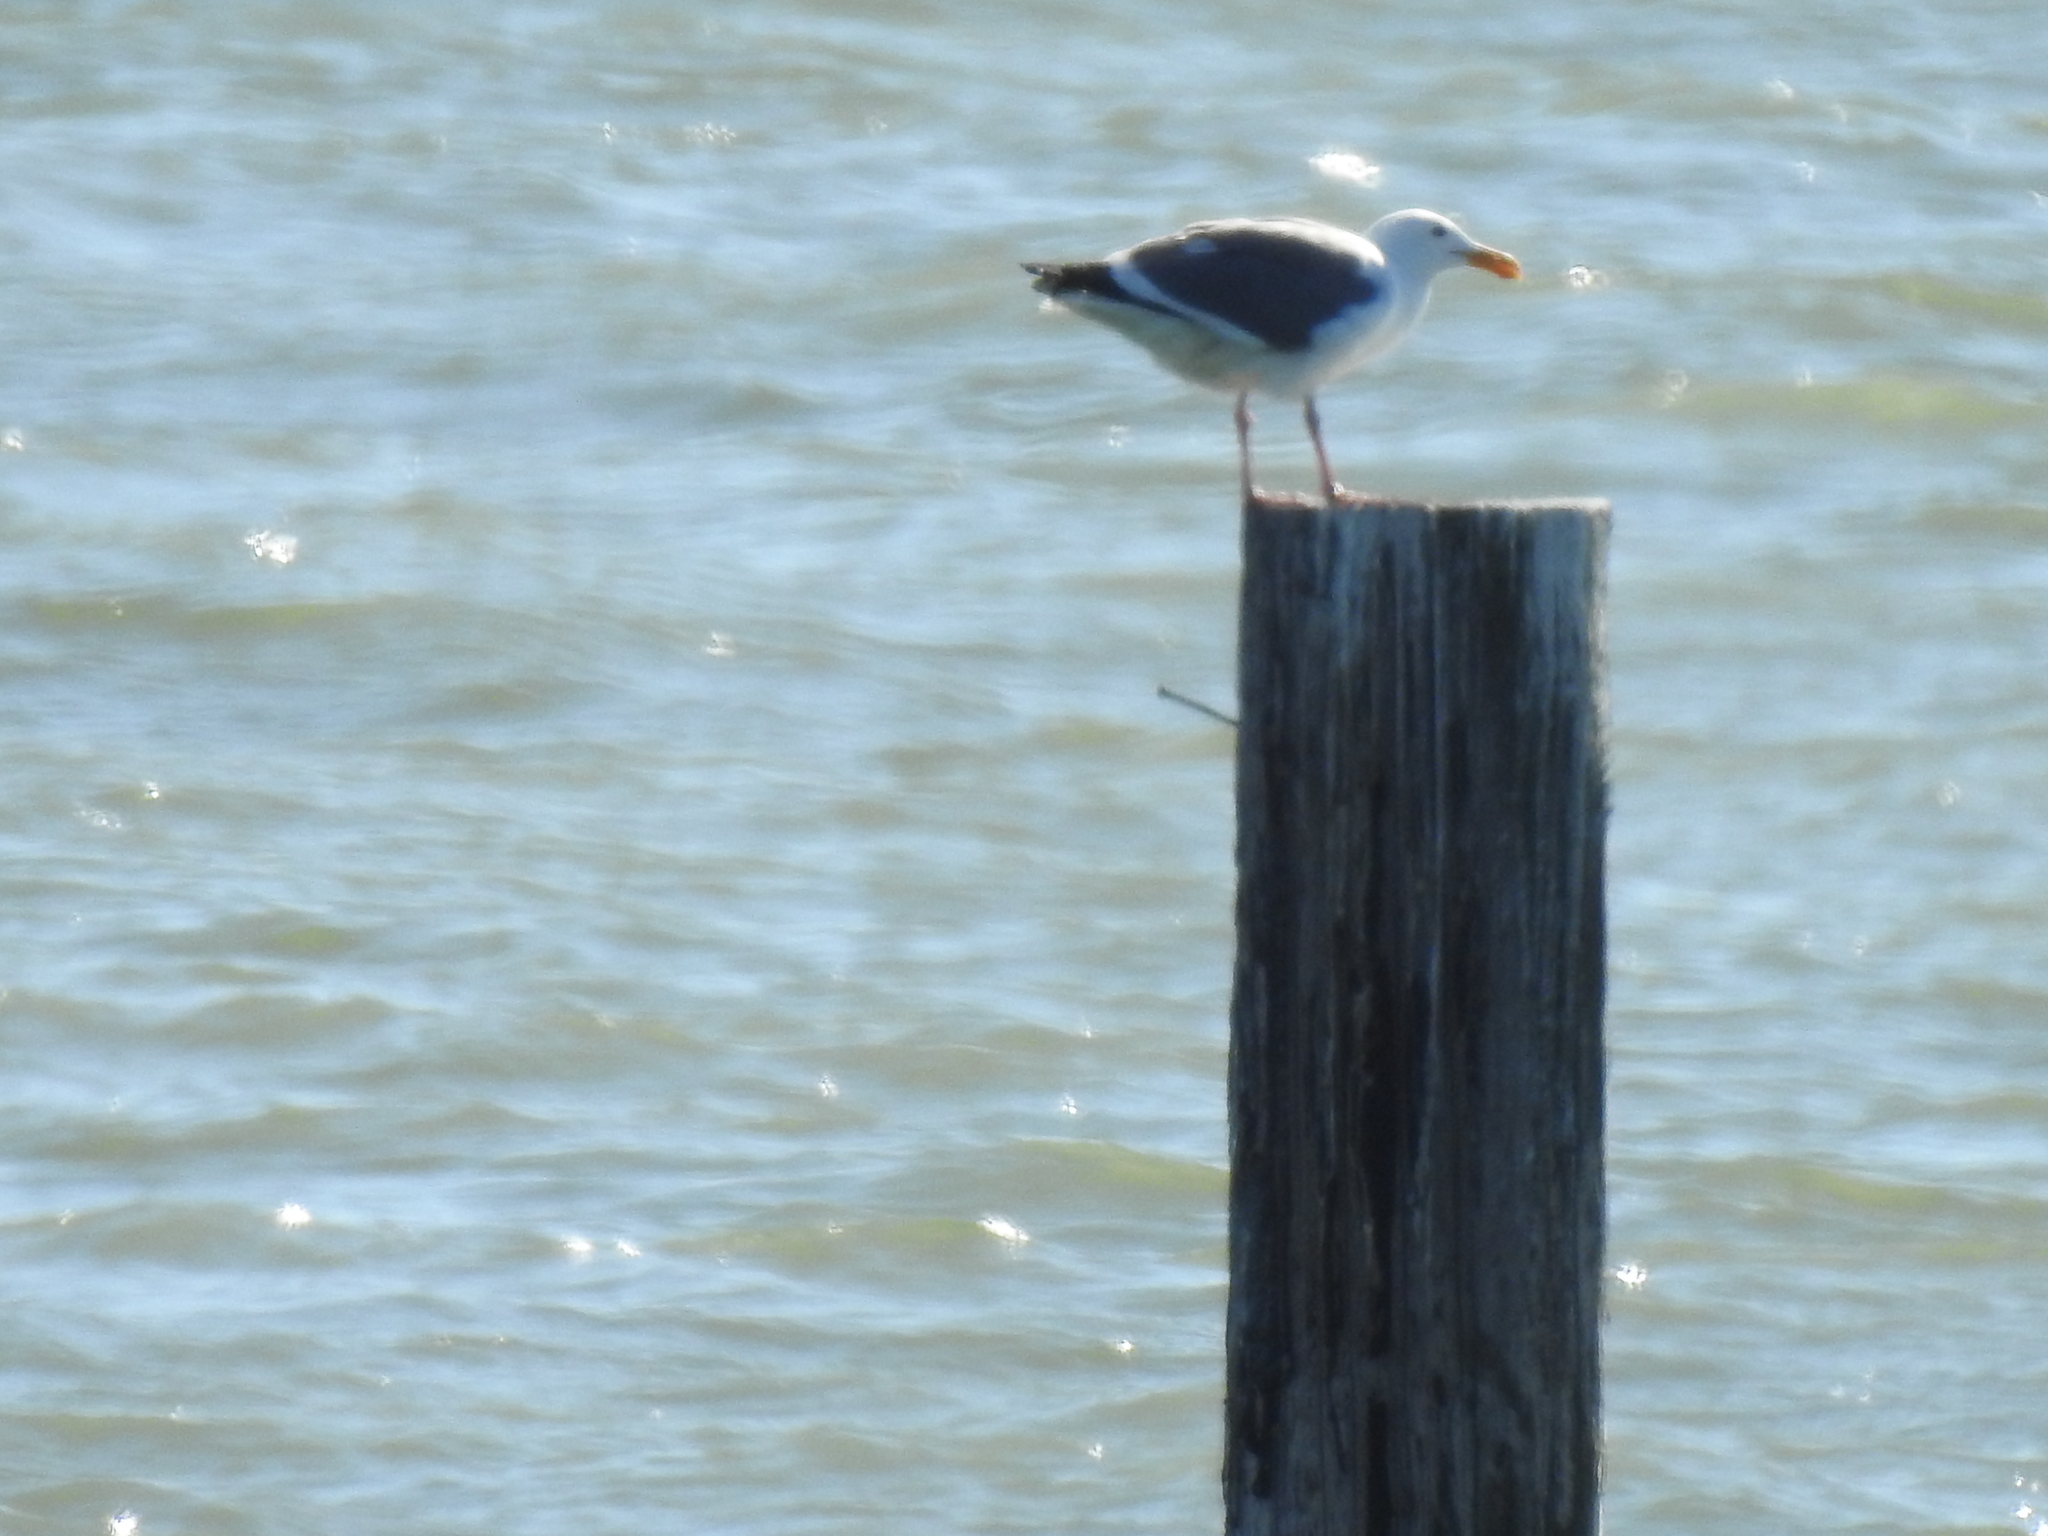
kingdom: Animalia
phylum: Chordata
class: Aves
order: Charadriiformes
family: Laridae
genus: Larus
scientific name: Larus occidentalis
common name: Western gull
